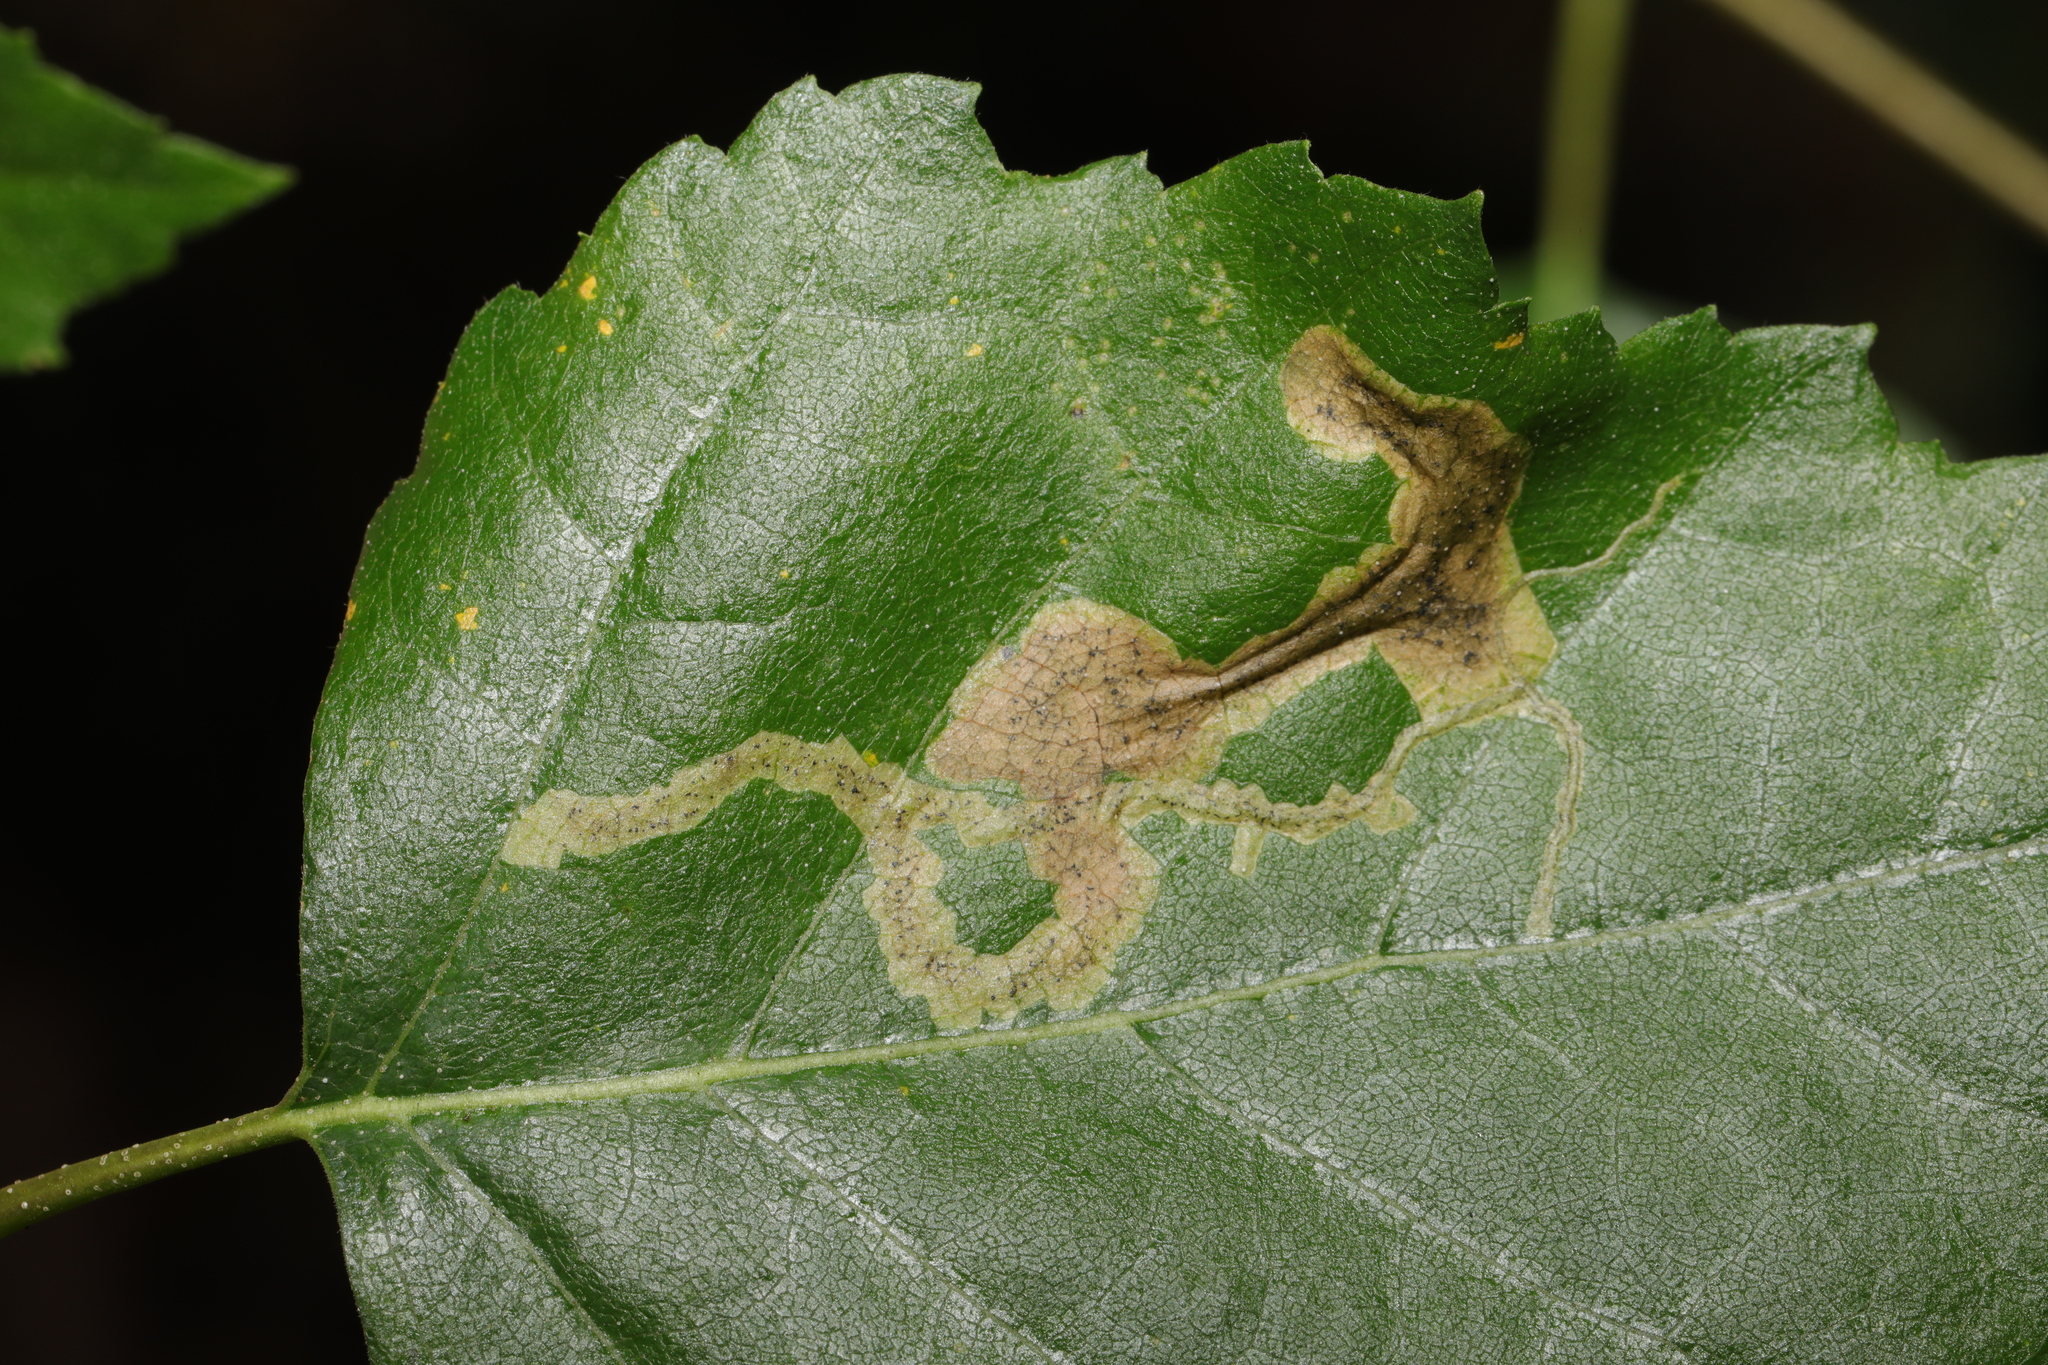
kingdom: Animalia
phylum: Arthropoda
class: Insecta
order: Diptera
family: Agromyzidae
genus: Agromyza
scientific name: Agromyza alnibetulae
